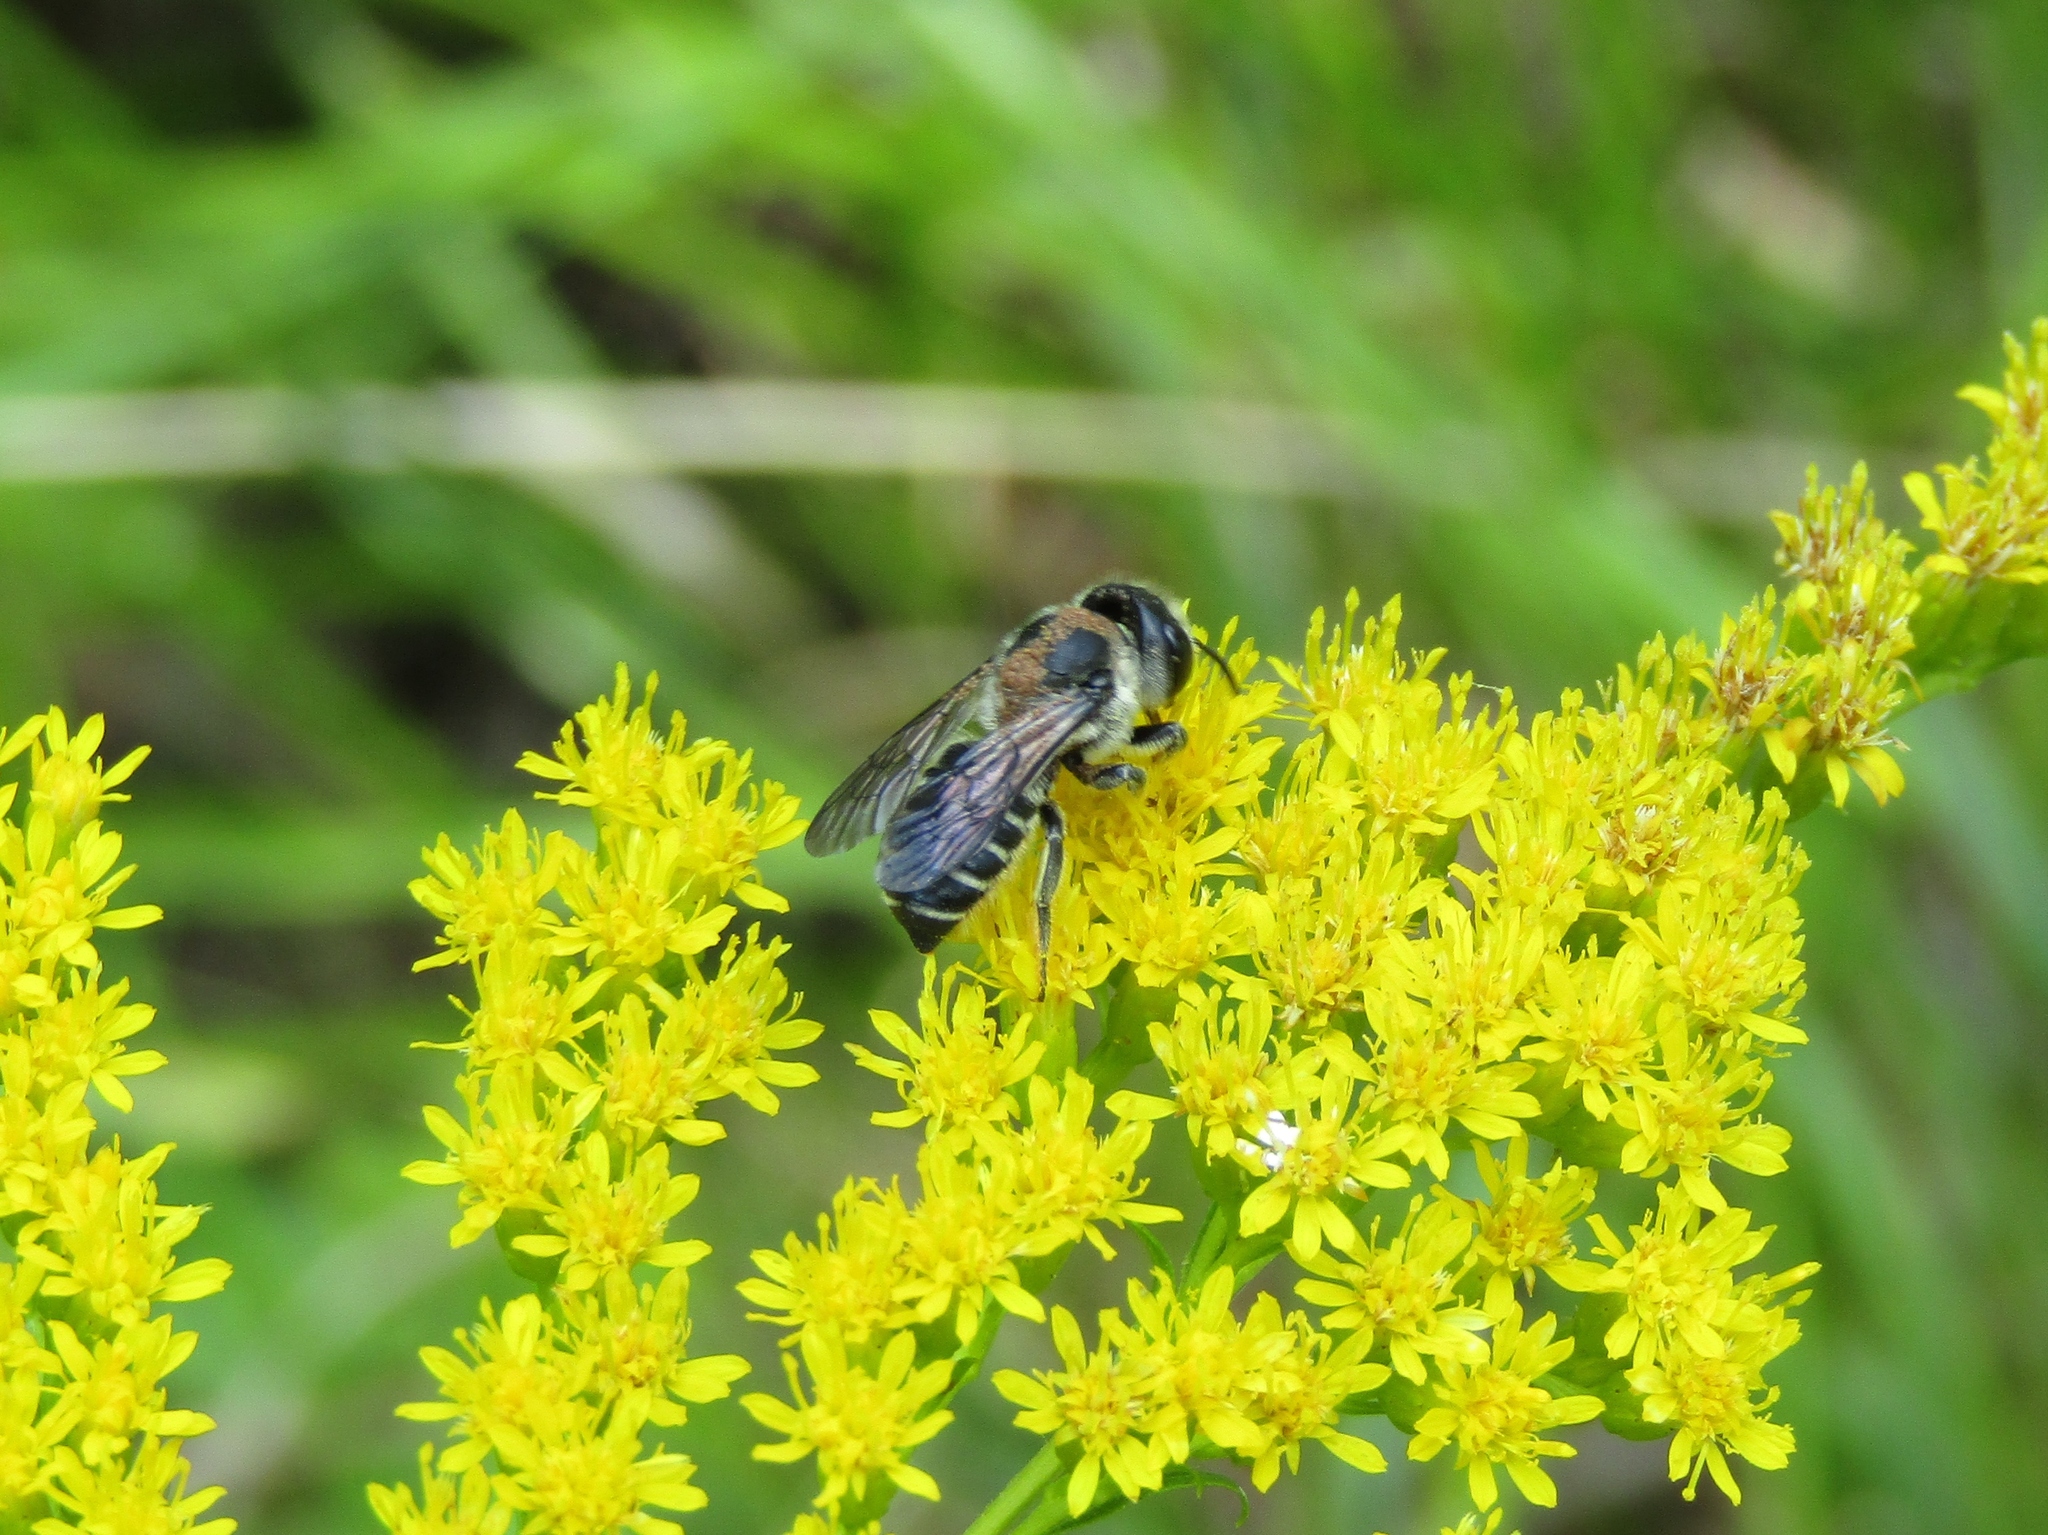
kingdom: Animalia
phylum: Arthropoda
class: Insecta
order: Hymenoptera
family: Megachilidae
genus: Megachile
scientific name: Megachile montivaga
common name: Silver-tailed petalcutter bee
